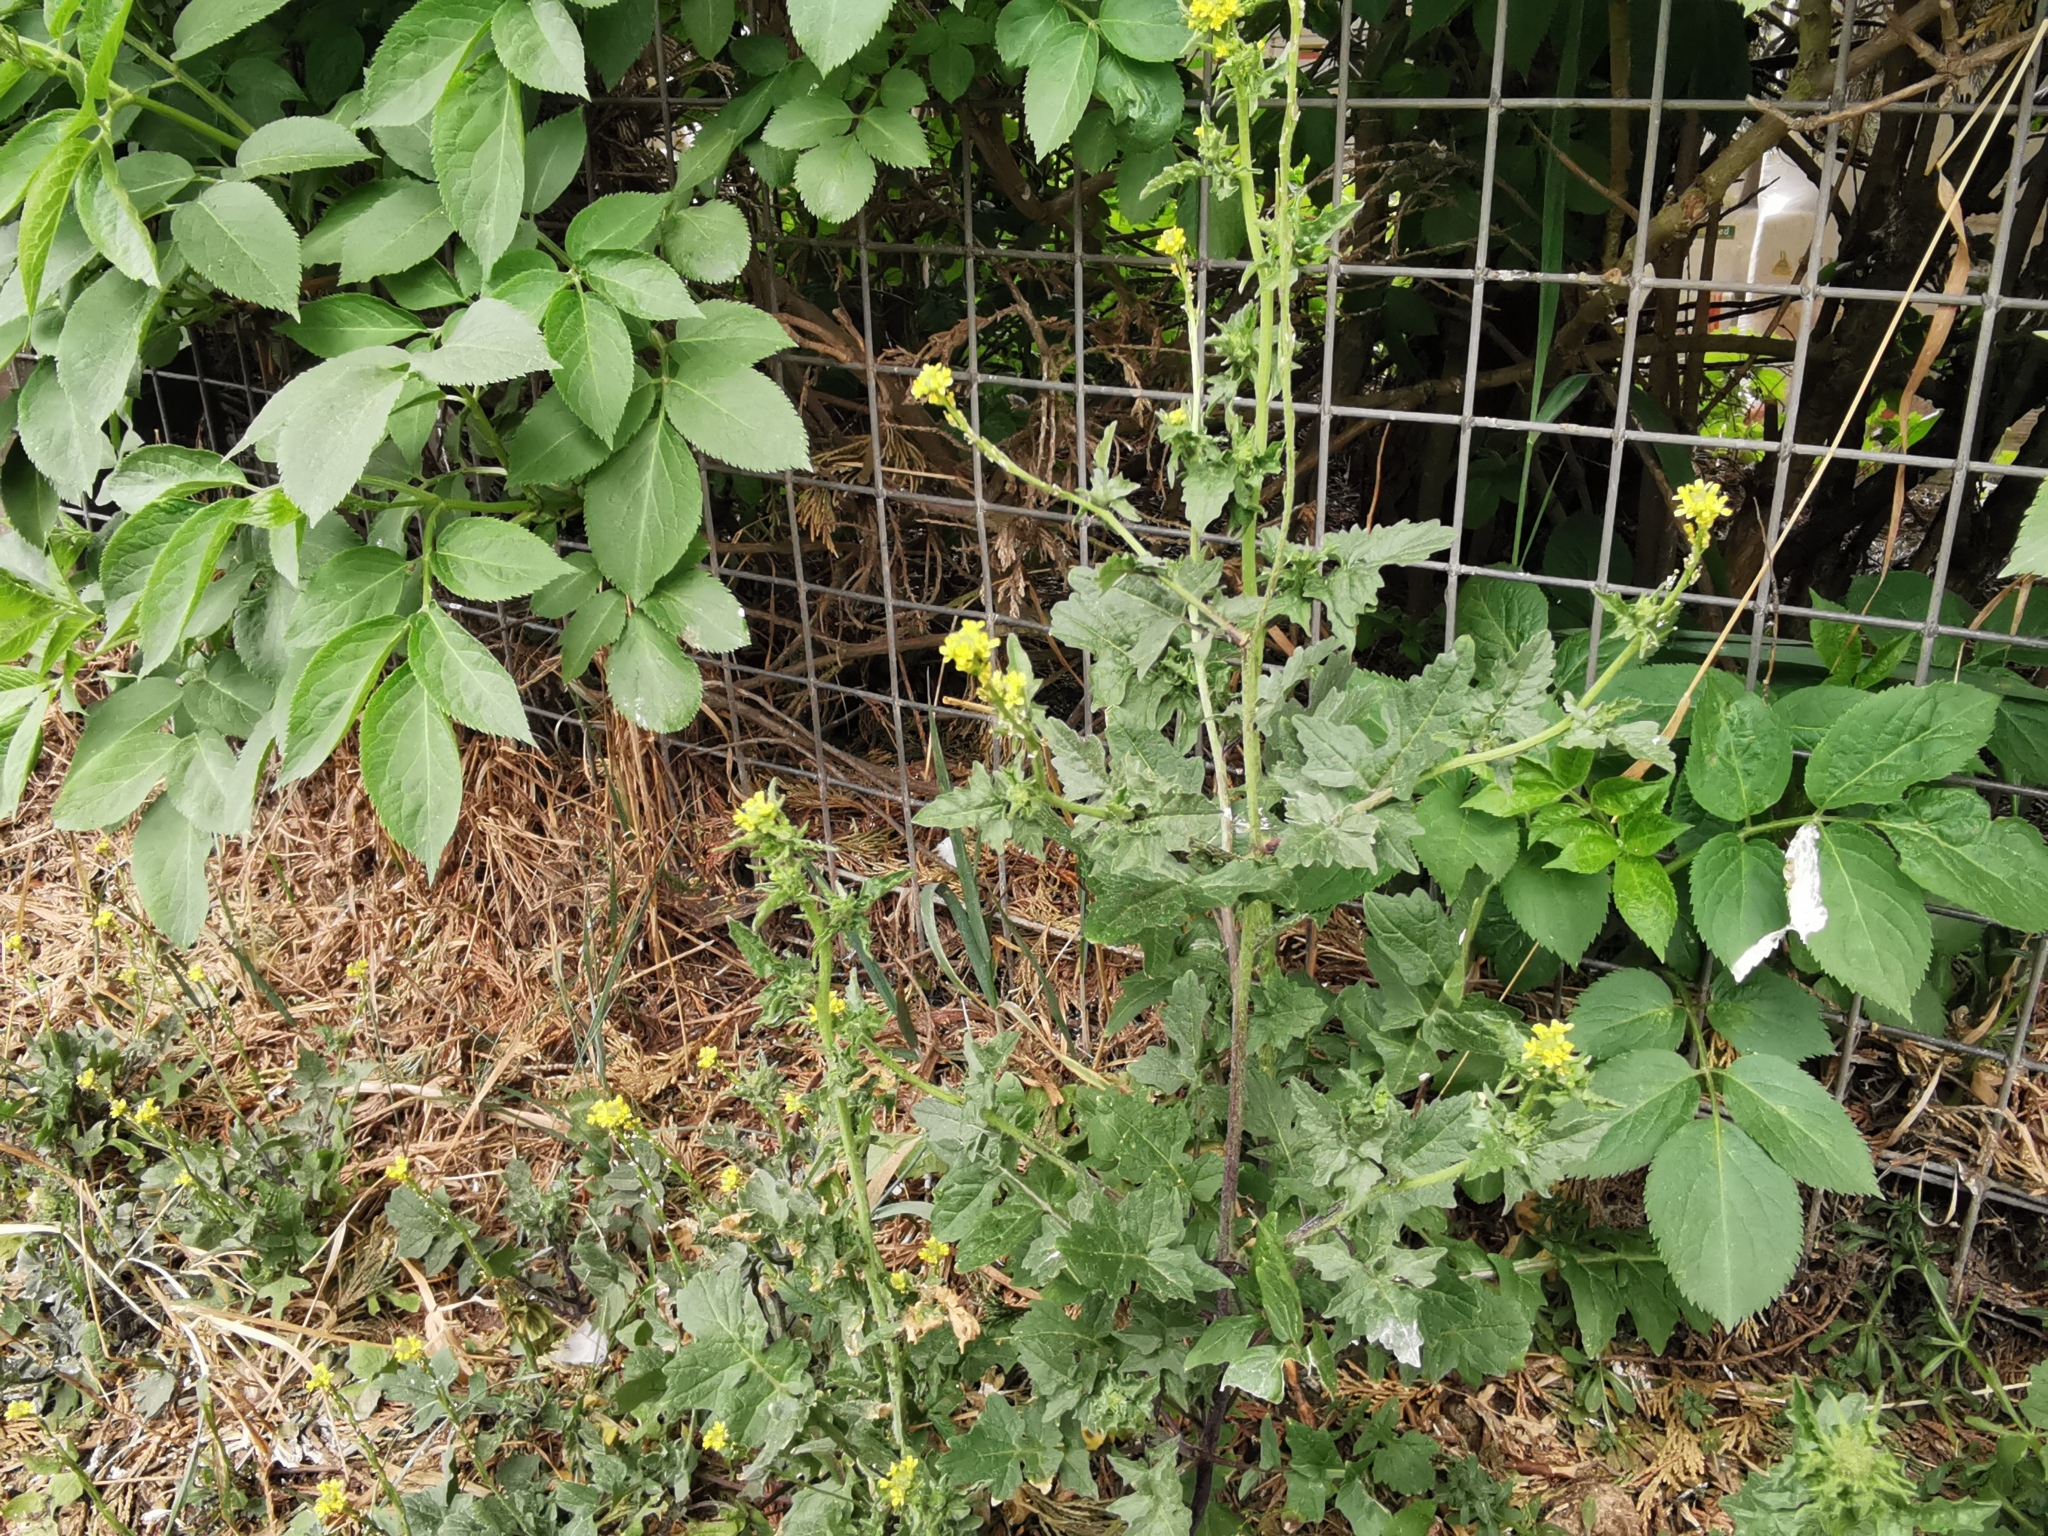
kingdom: Plantae
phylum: Tracheophyta
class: Magnoliopsida
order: Brassicales
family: Brassicaceae
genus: Sisymbrium
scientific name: Sisymbrium officinale
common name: Hedge mustard
